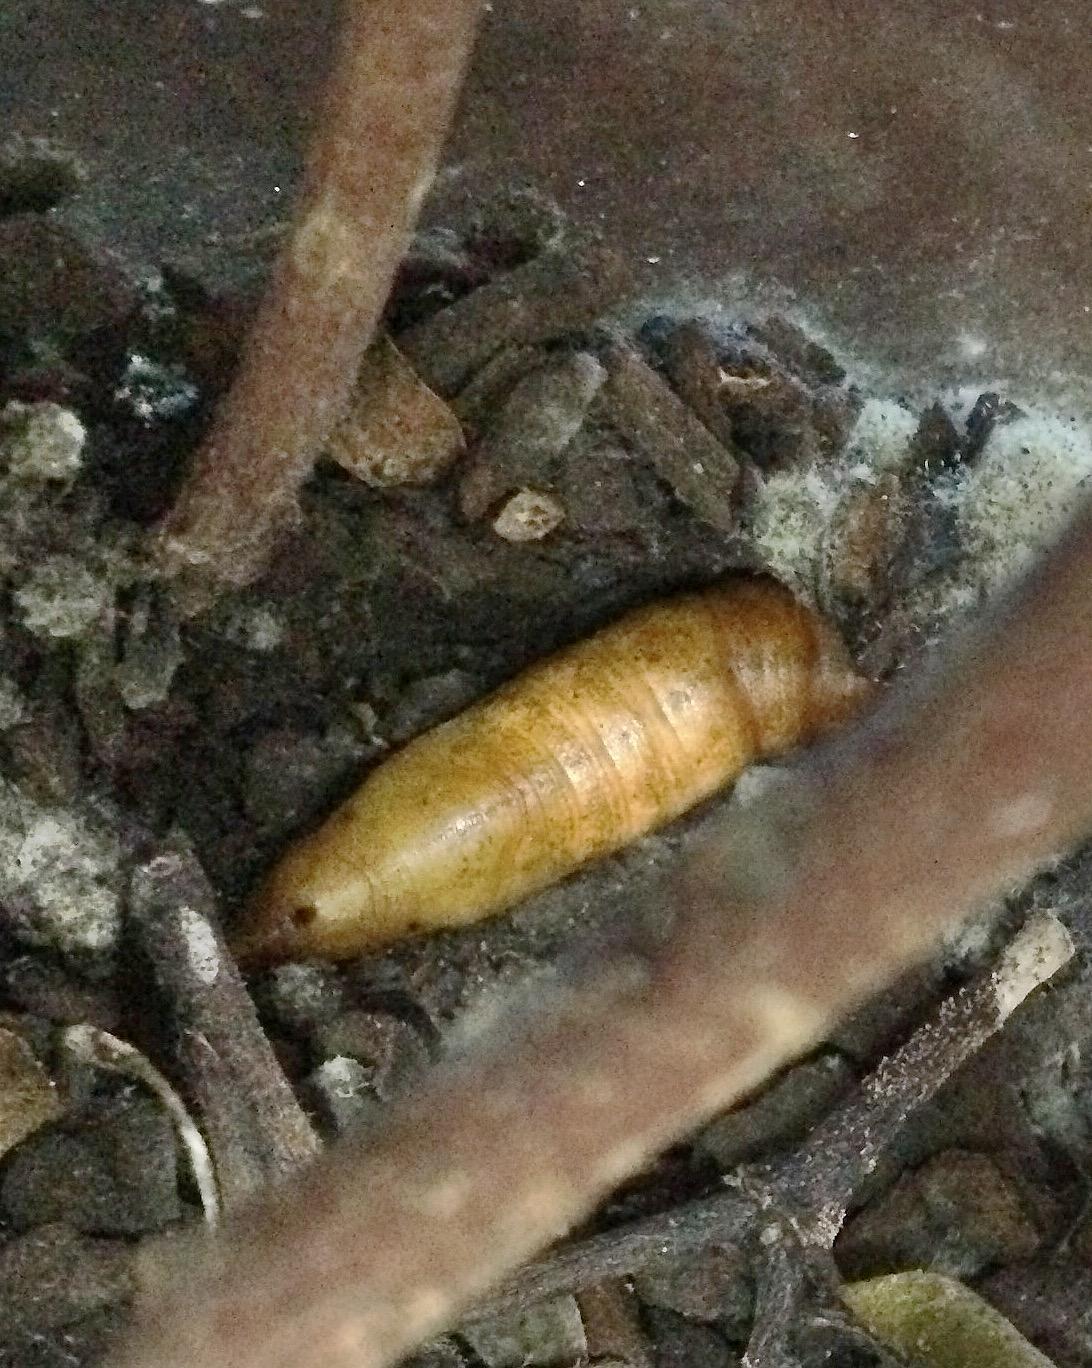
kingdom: Animalia
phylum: Arthropoda
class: Insecta
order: Lepidoptera
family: Sphingidae
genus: Nephele
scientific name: Nephele vau
